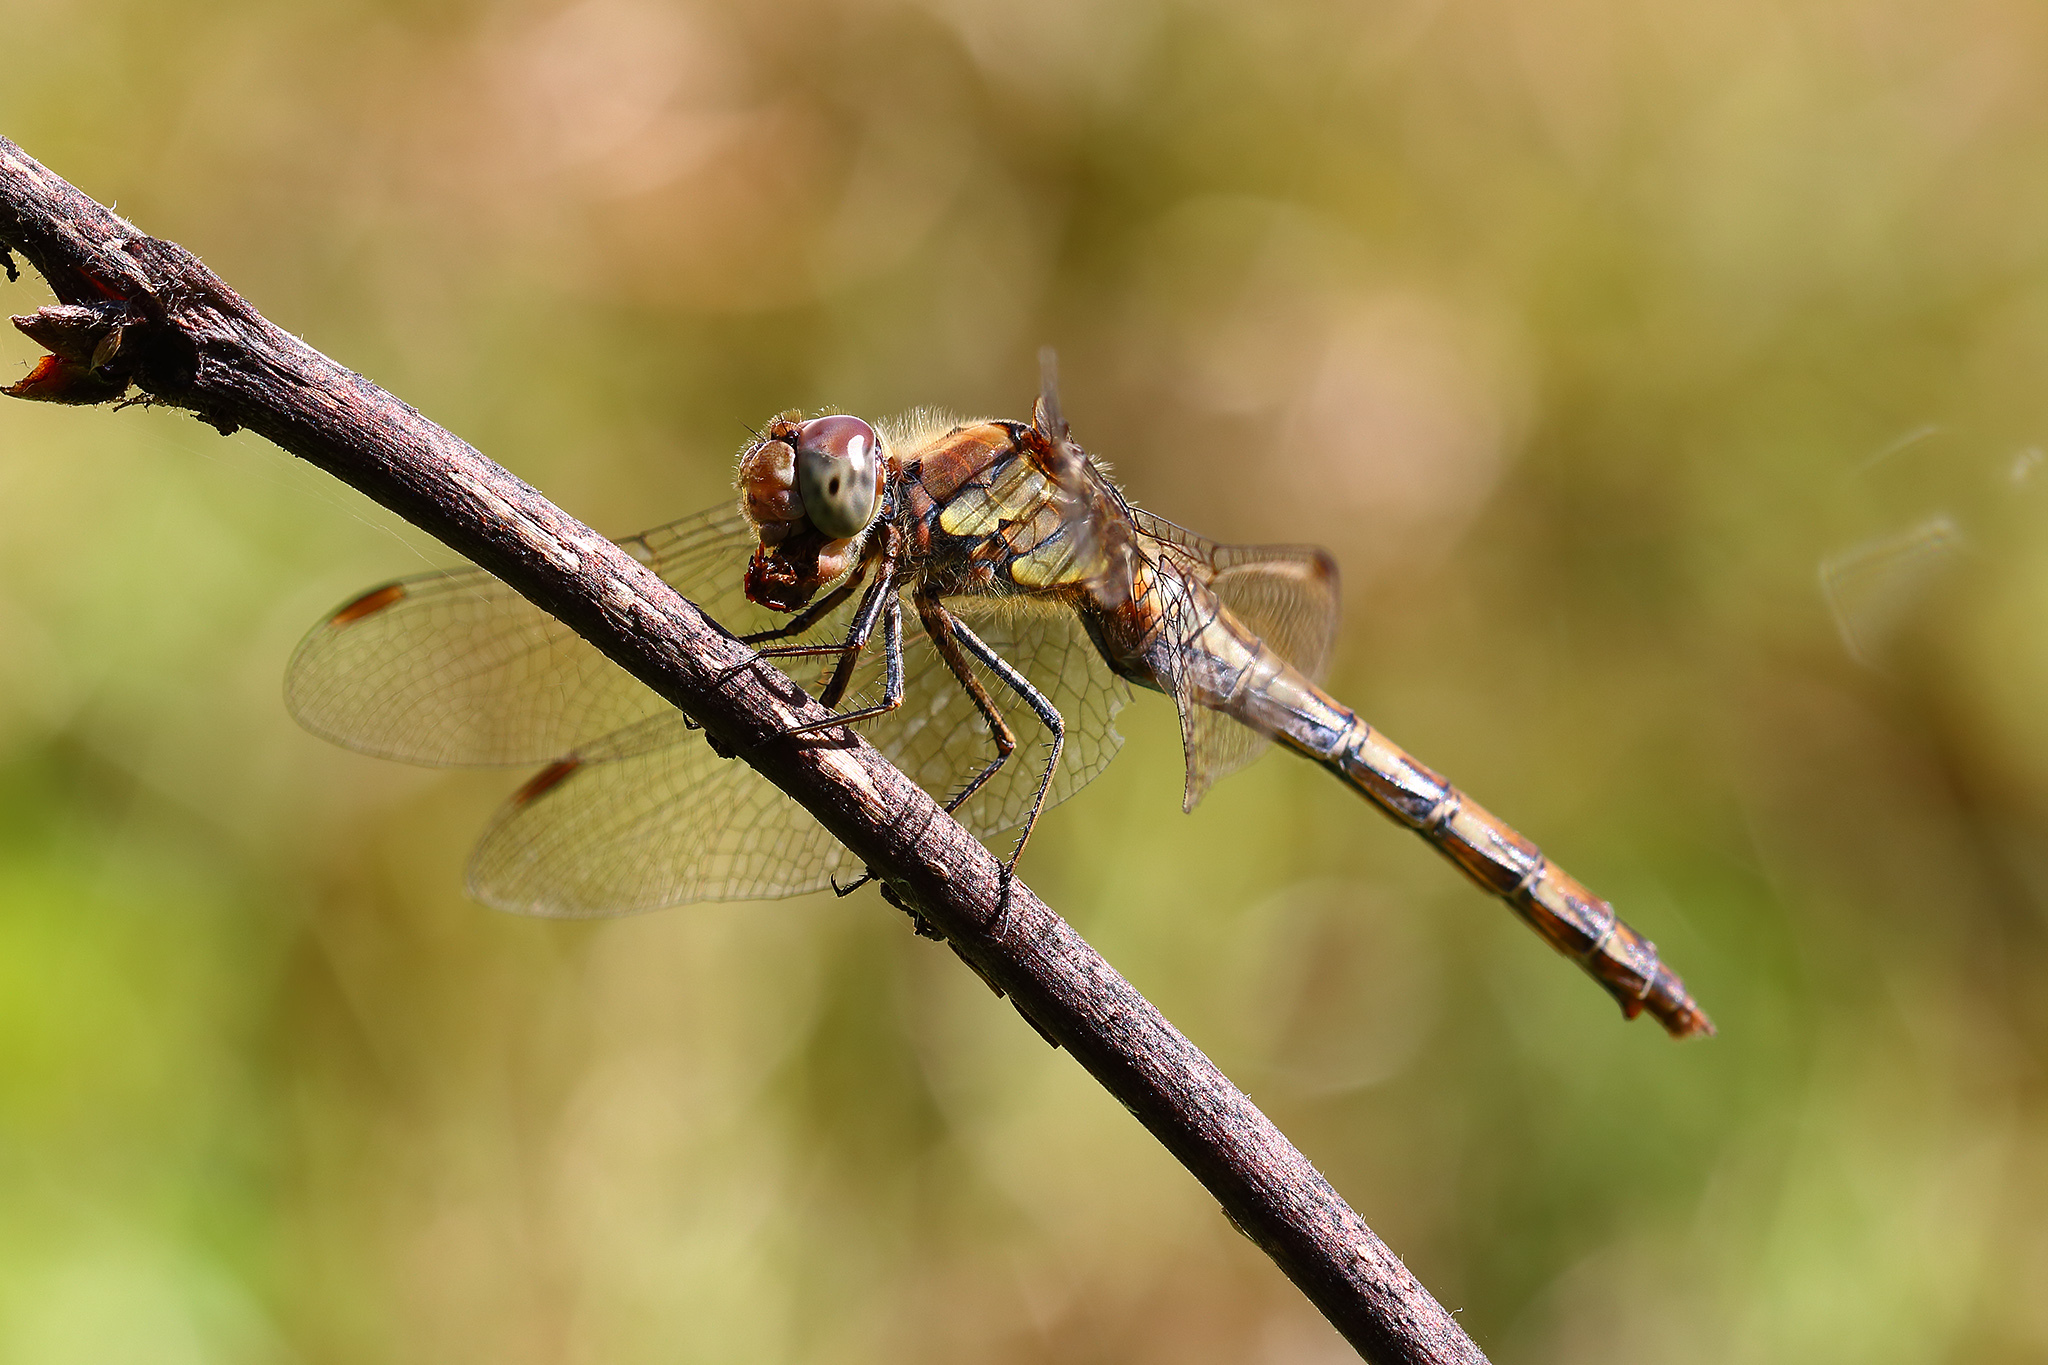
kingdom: Animalia
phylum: Arthropoda
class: Insecta
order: Odonata
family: Libellulidae
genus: Sympetrum
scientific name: Sympetrum striolatum
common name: Common darter
